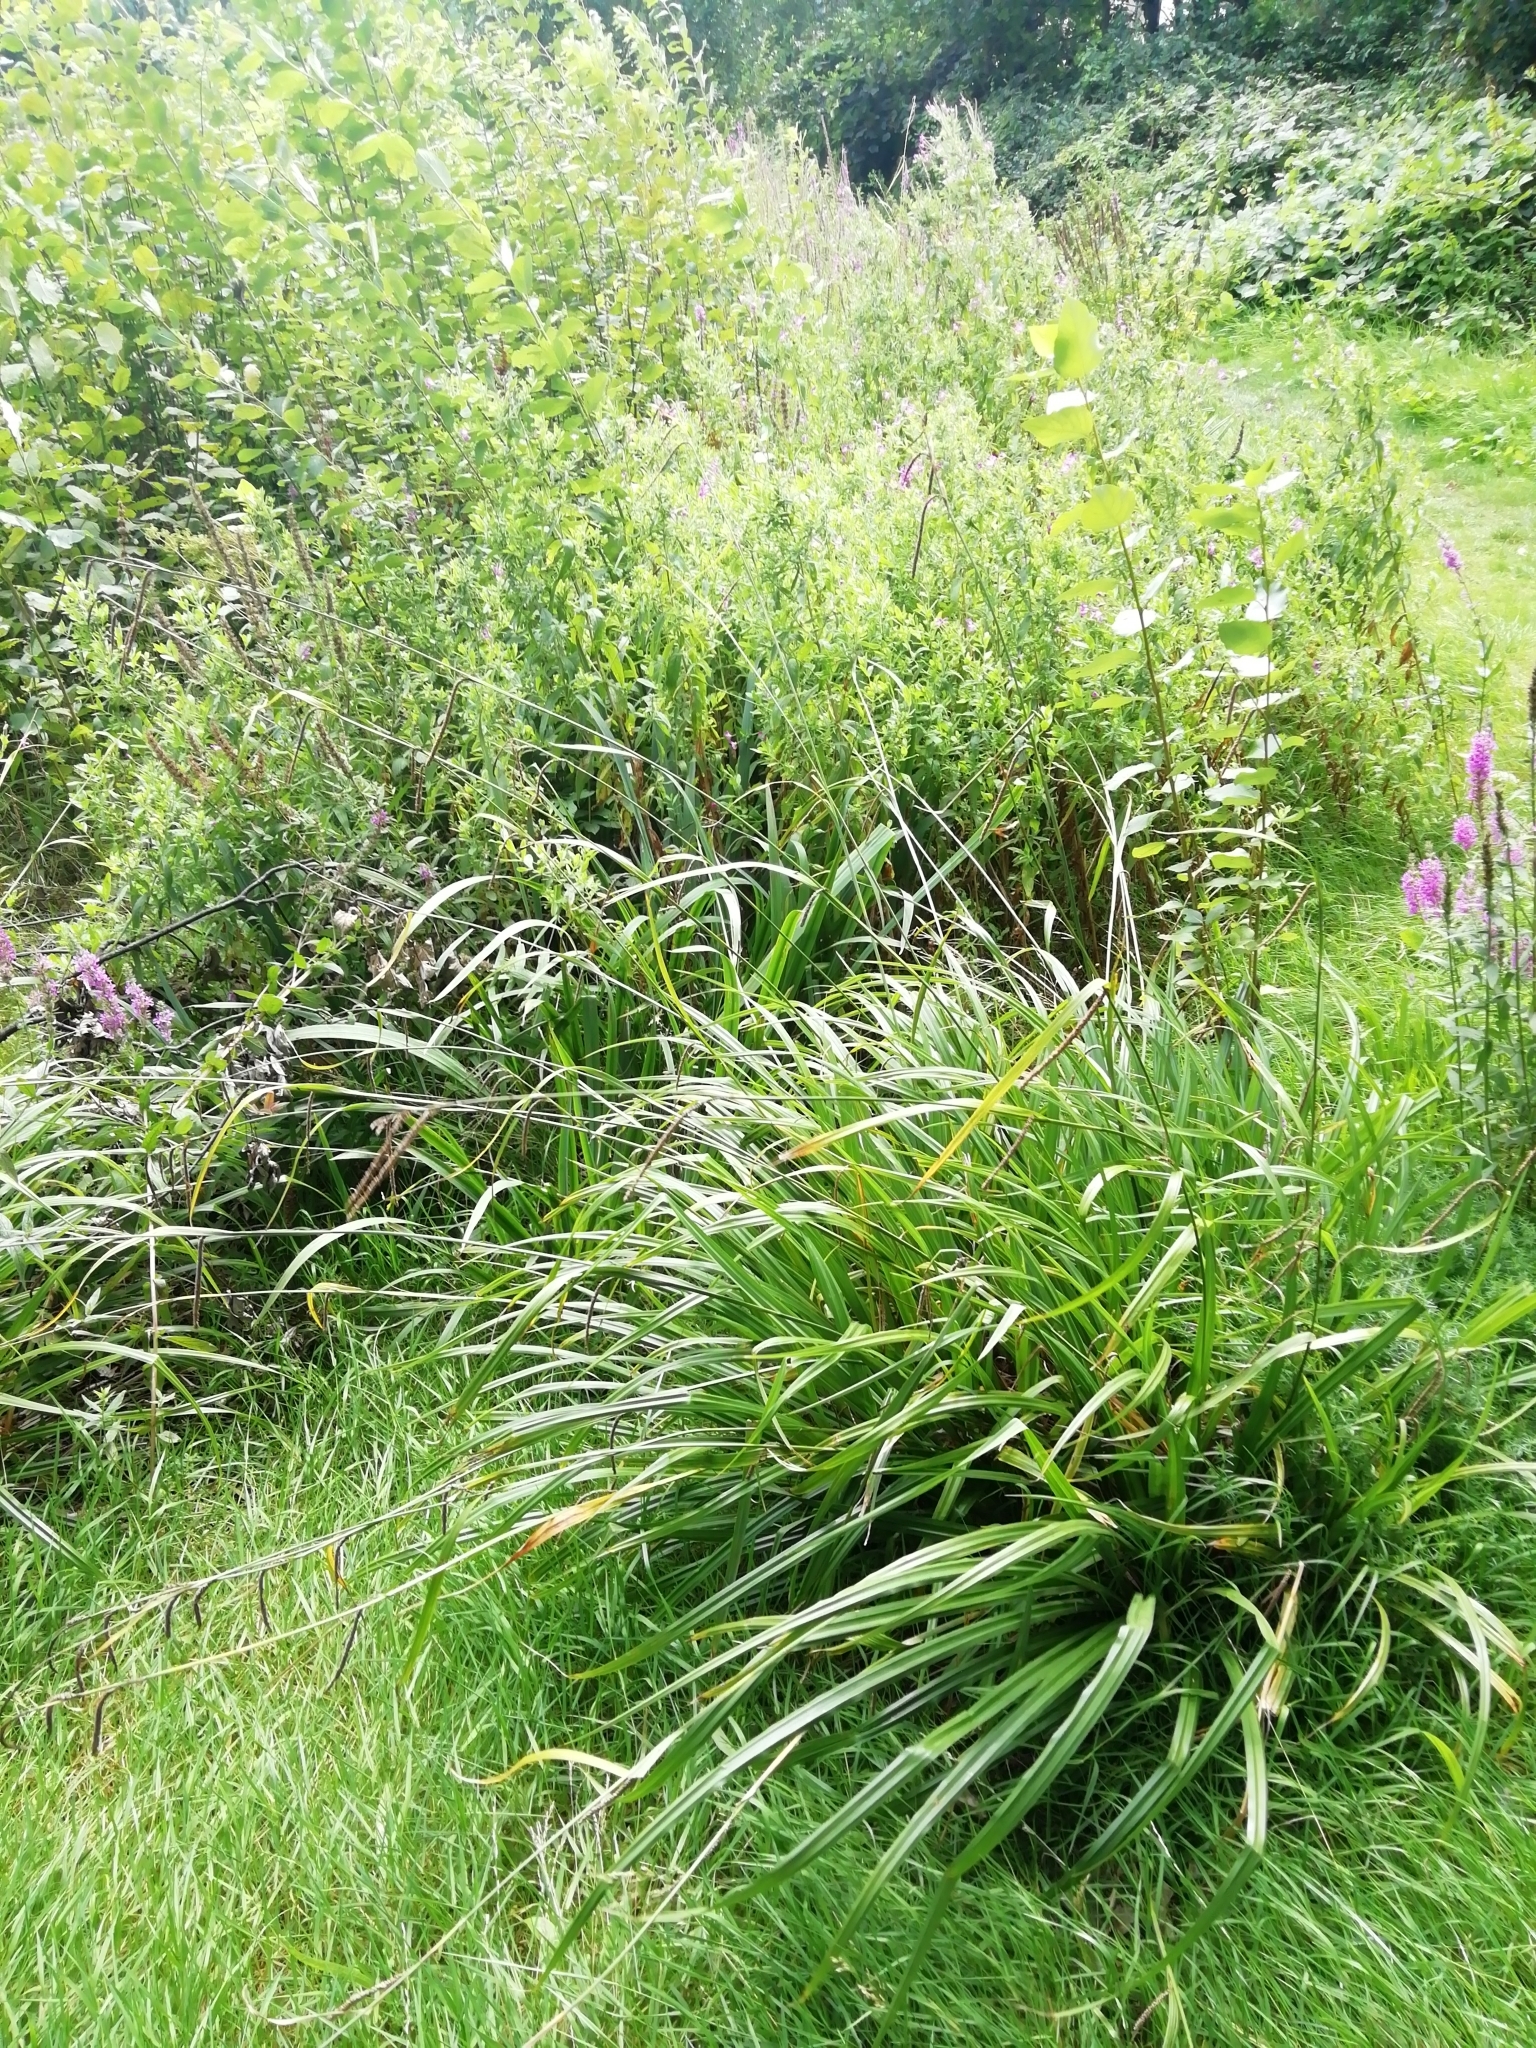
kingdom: Plantae
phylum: Tracheophyta
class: Liliopsida
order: Poales
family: Cyperaceae
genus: Carex
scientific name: Carex pendula
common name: Pendulous sedge
